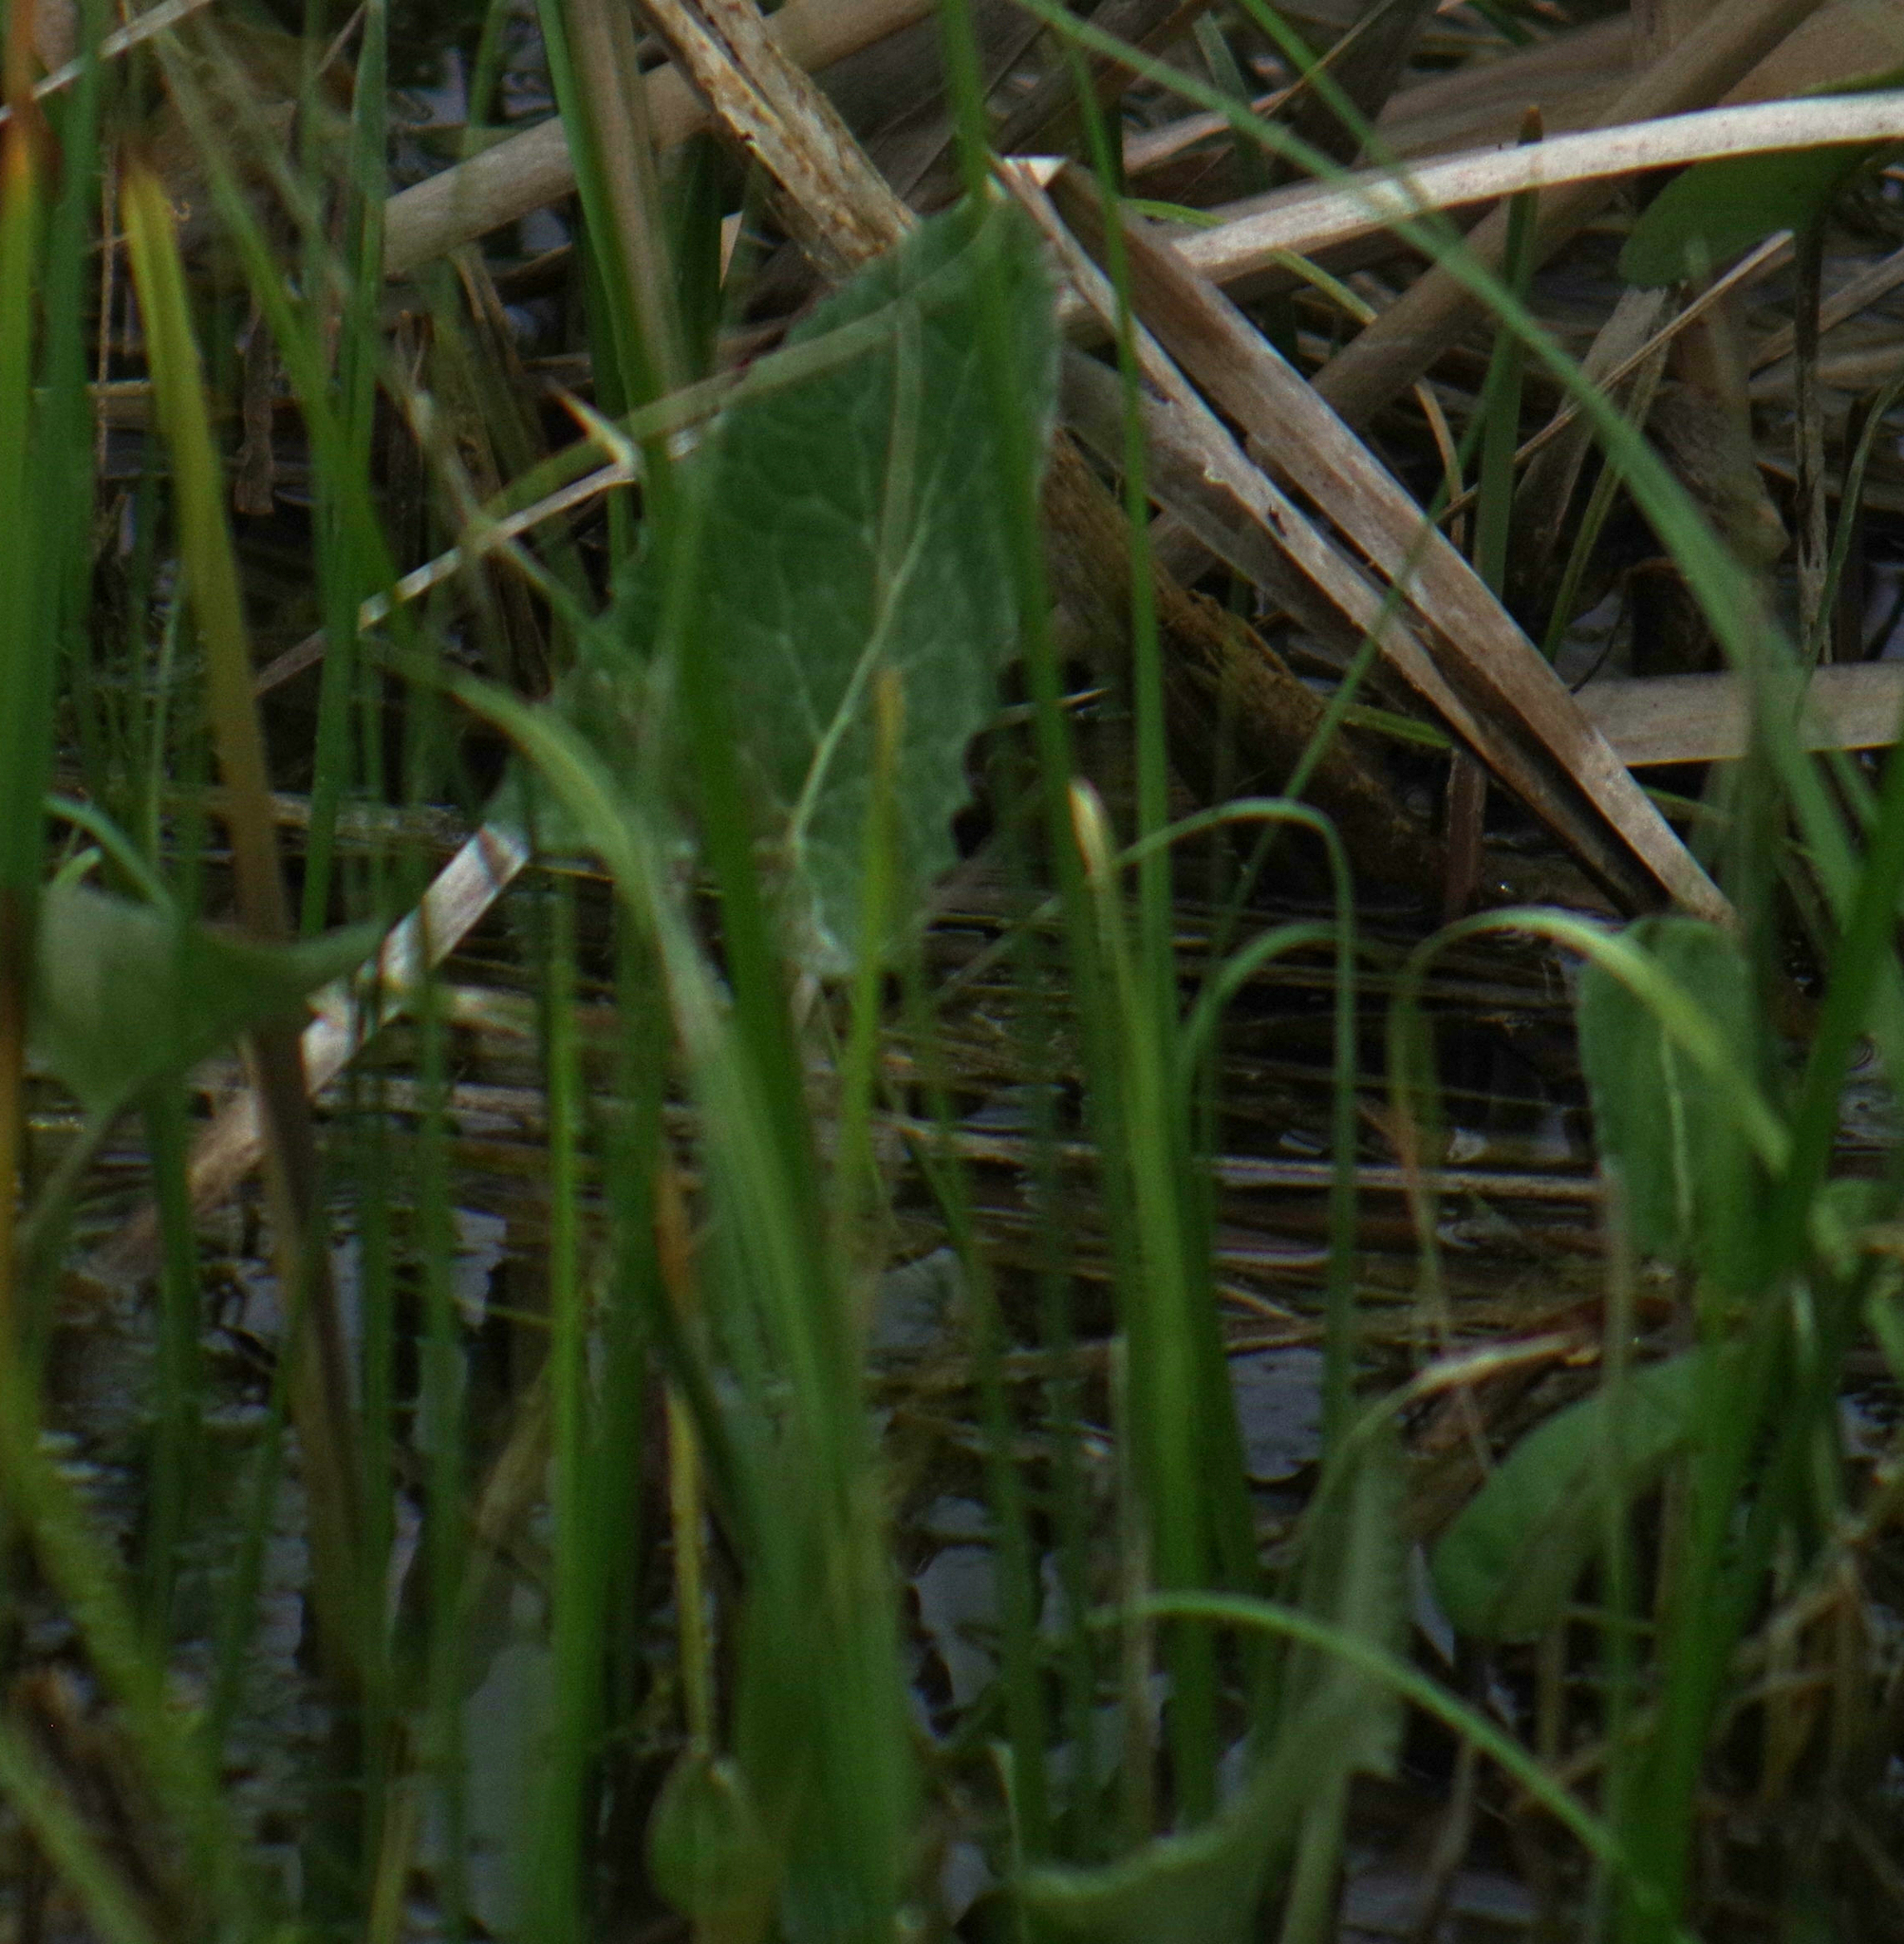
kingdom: Plantae
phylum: Tracheophyta
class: Magnoliopsida
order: Asterales
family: Asteraceae
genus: Petasites
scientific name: Petasites frigidus
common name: Arctic butterbur
